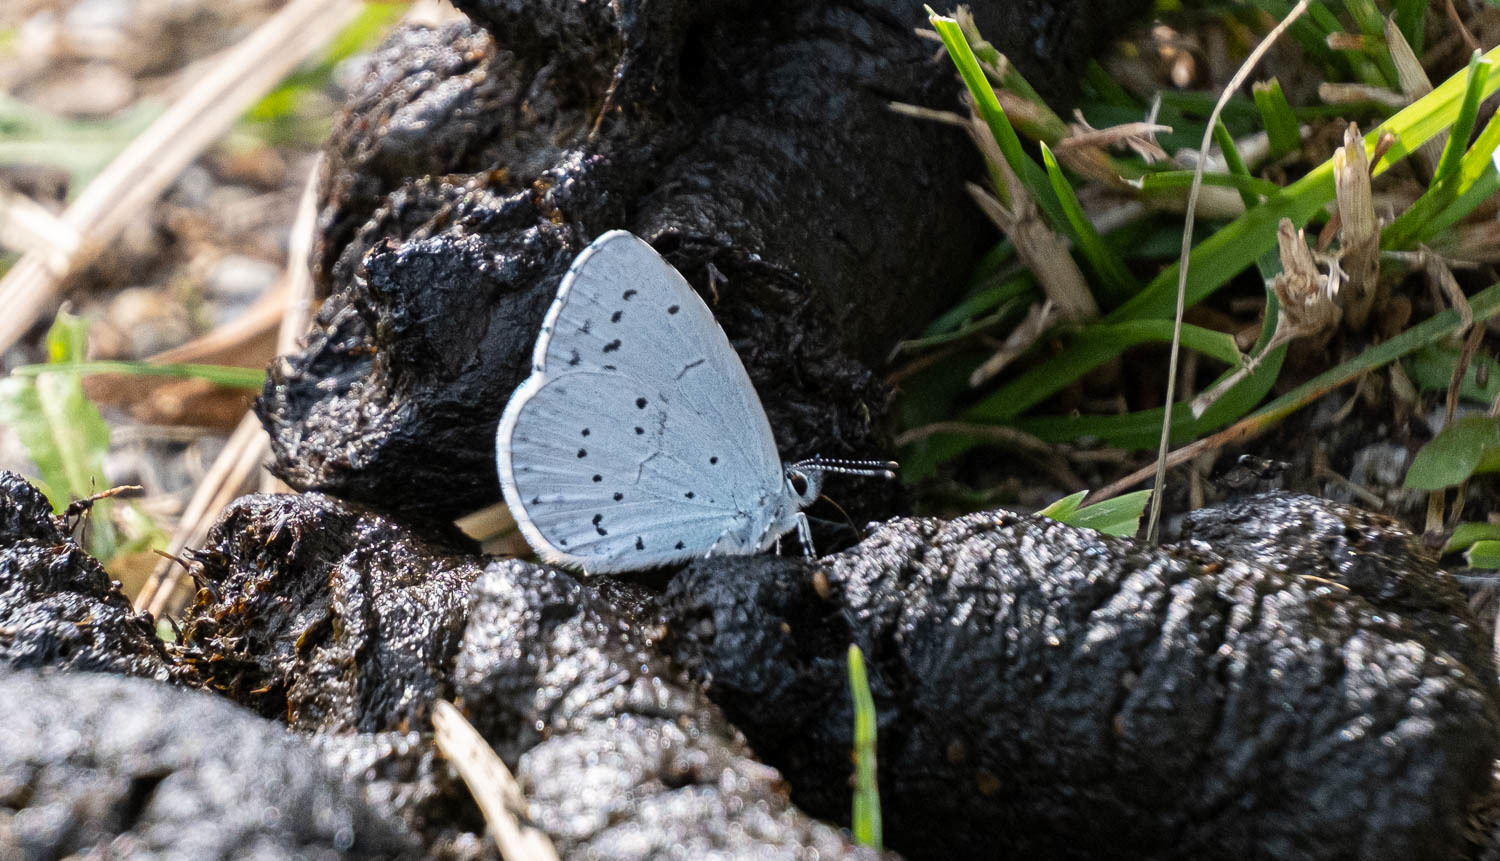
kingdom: Animalia
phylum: Arthropoda
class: Insecta
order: Lepidoptera
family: Lycaenidae
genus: Celastrina
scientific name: Celastrina argiolus
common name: Holly blue
